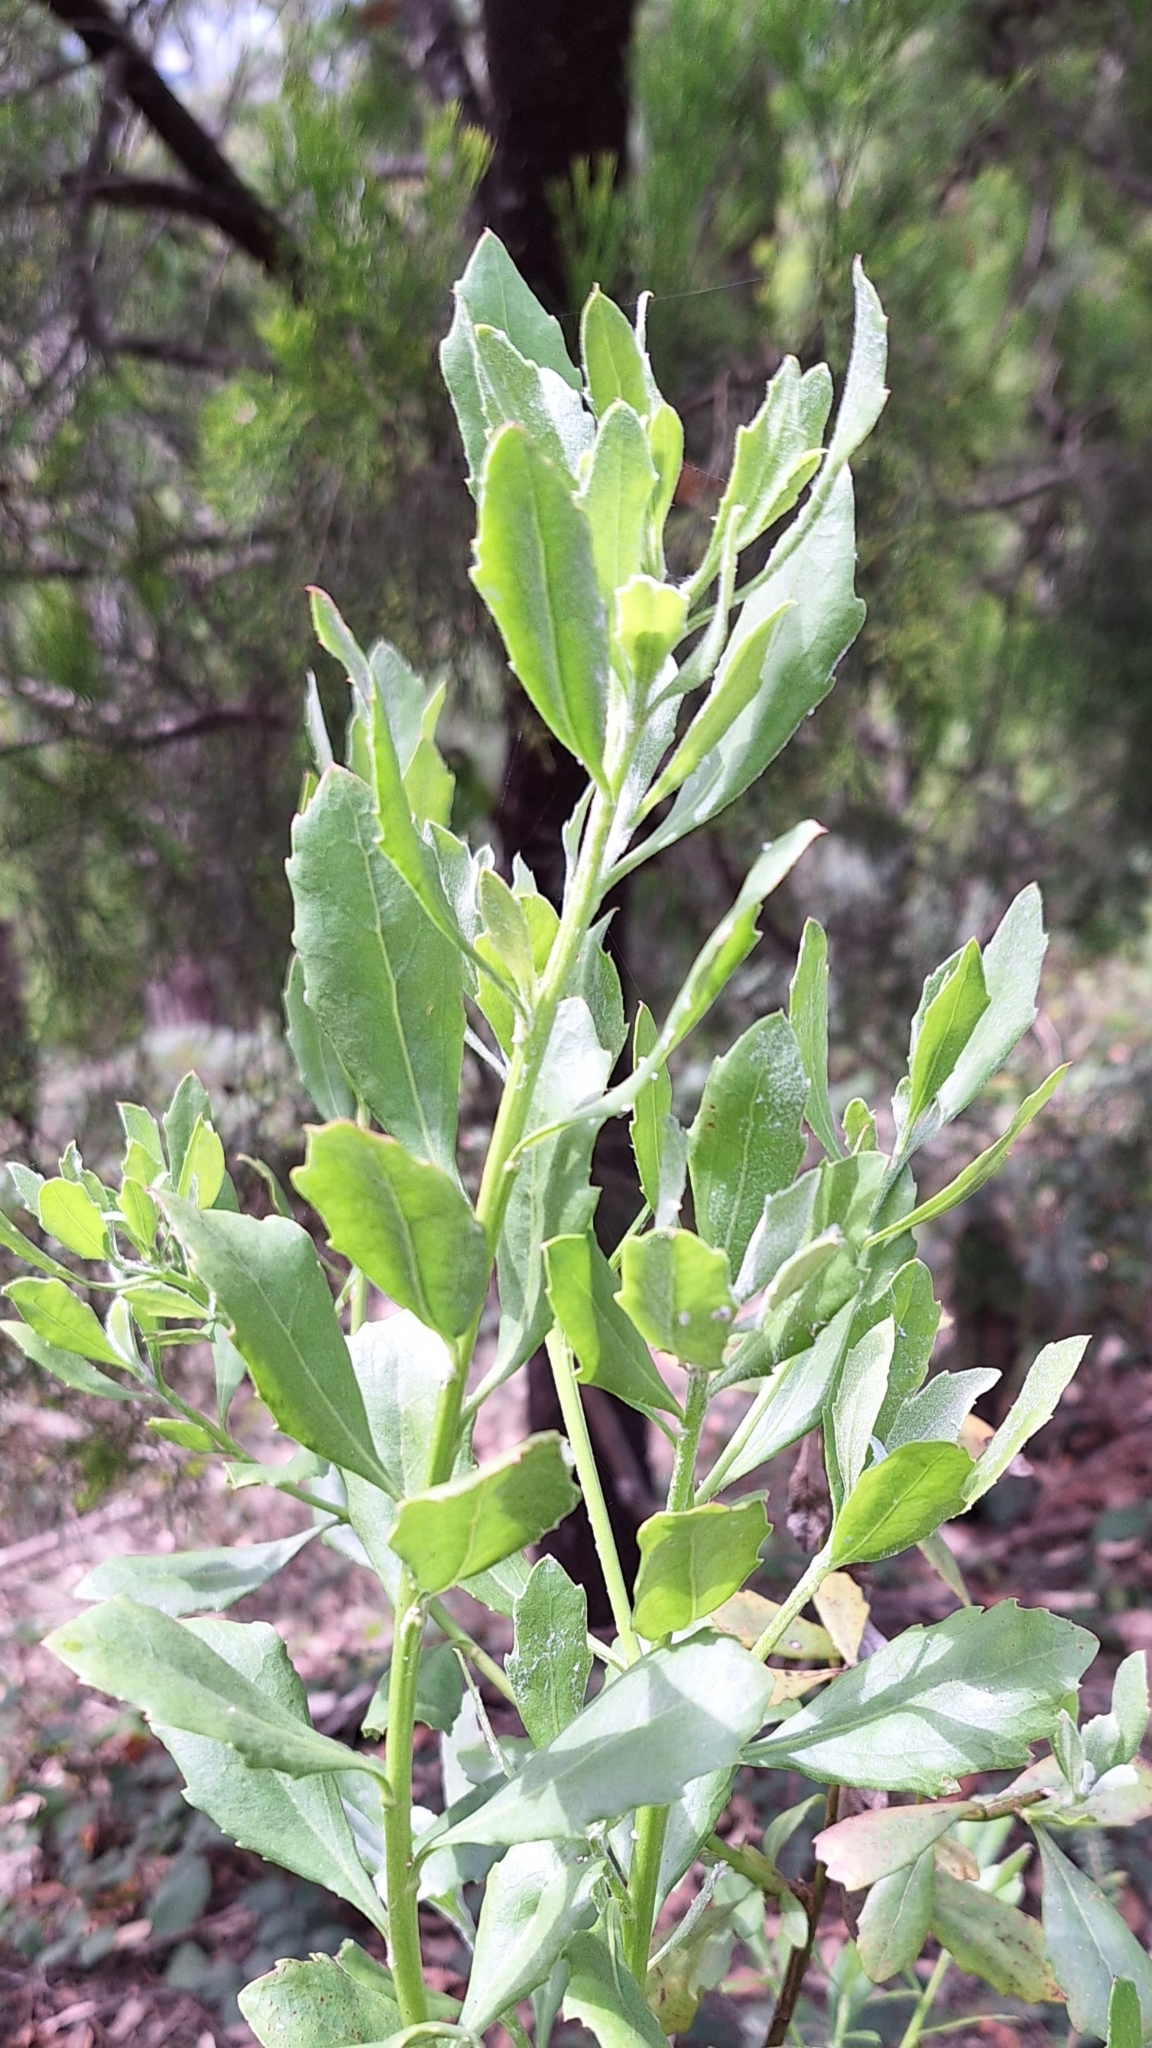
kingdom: Plantae
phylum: Tracheophyta
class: Magnoliopsida
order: Asterales
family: Asteraceae
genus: Osteospermum
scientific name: Osteospermum moniliferum
